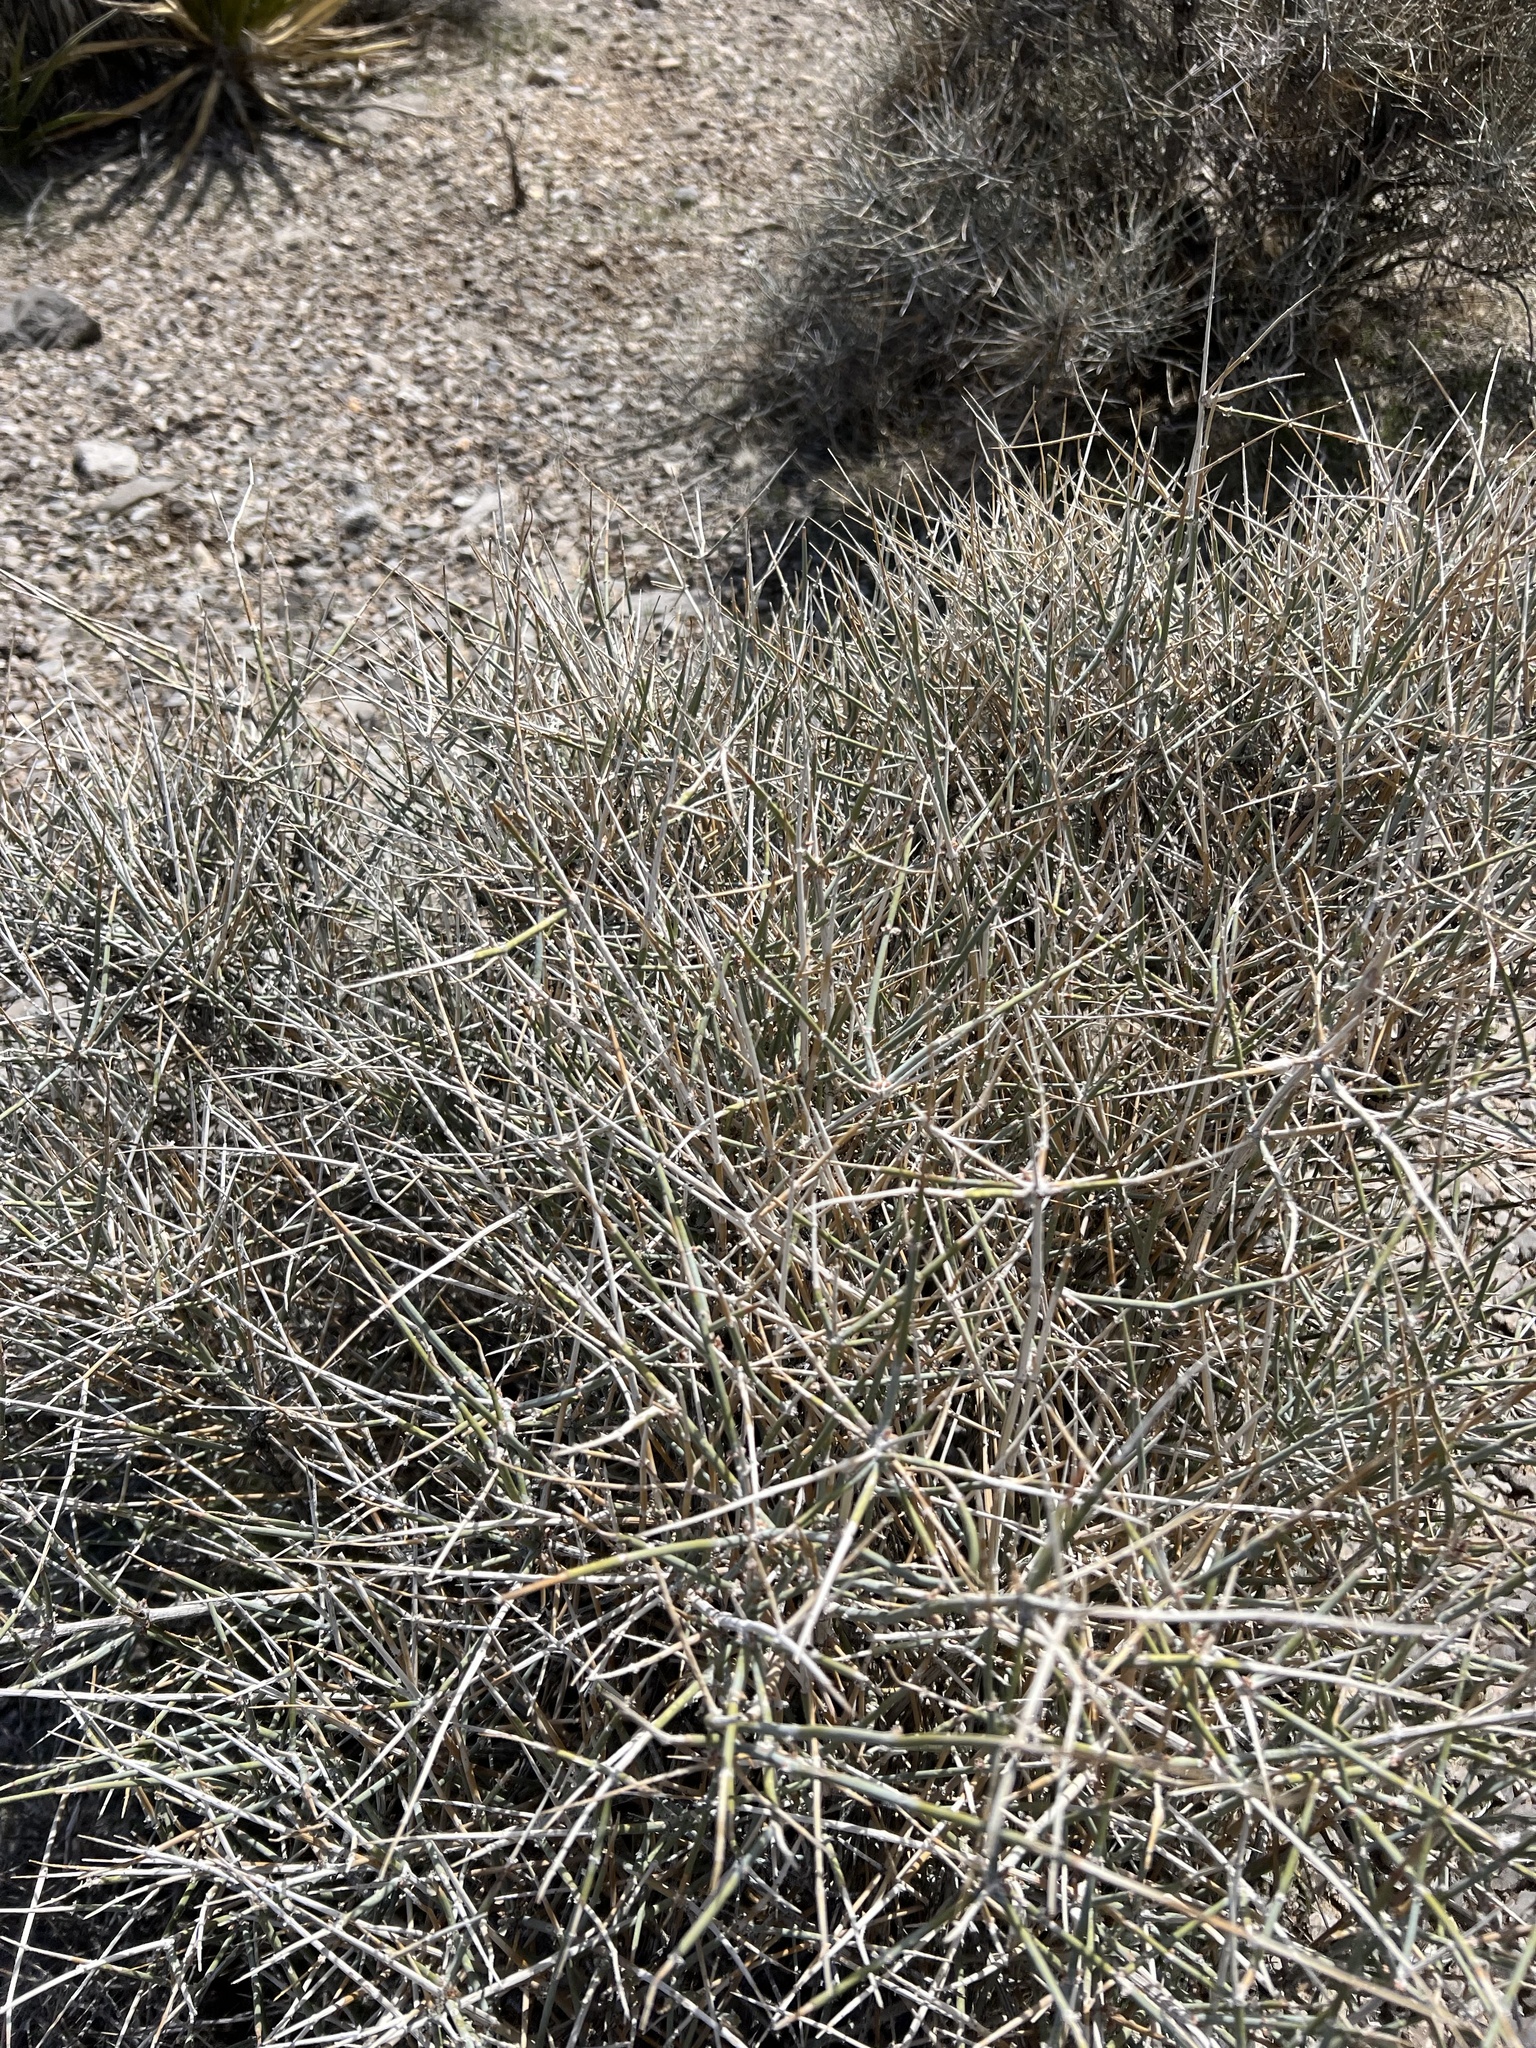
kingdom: Plantae
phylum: Tracheophyta
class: Gnetopsida
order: Ephedrales
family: Ephedraceae
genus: Ephedra
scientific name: Ephedra nevadensis
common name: Gray ephedra
